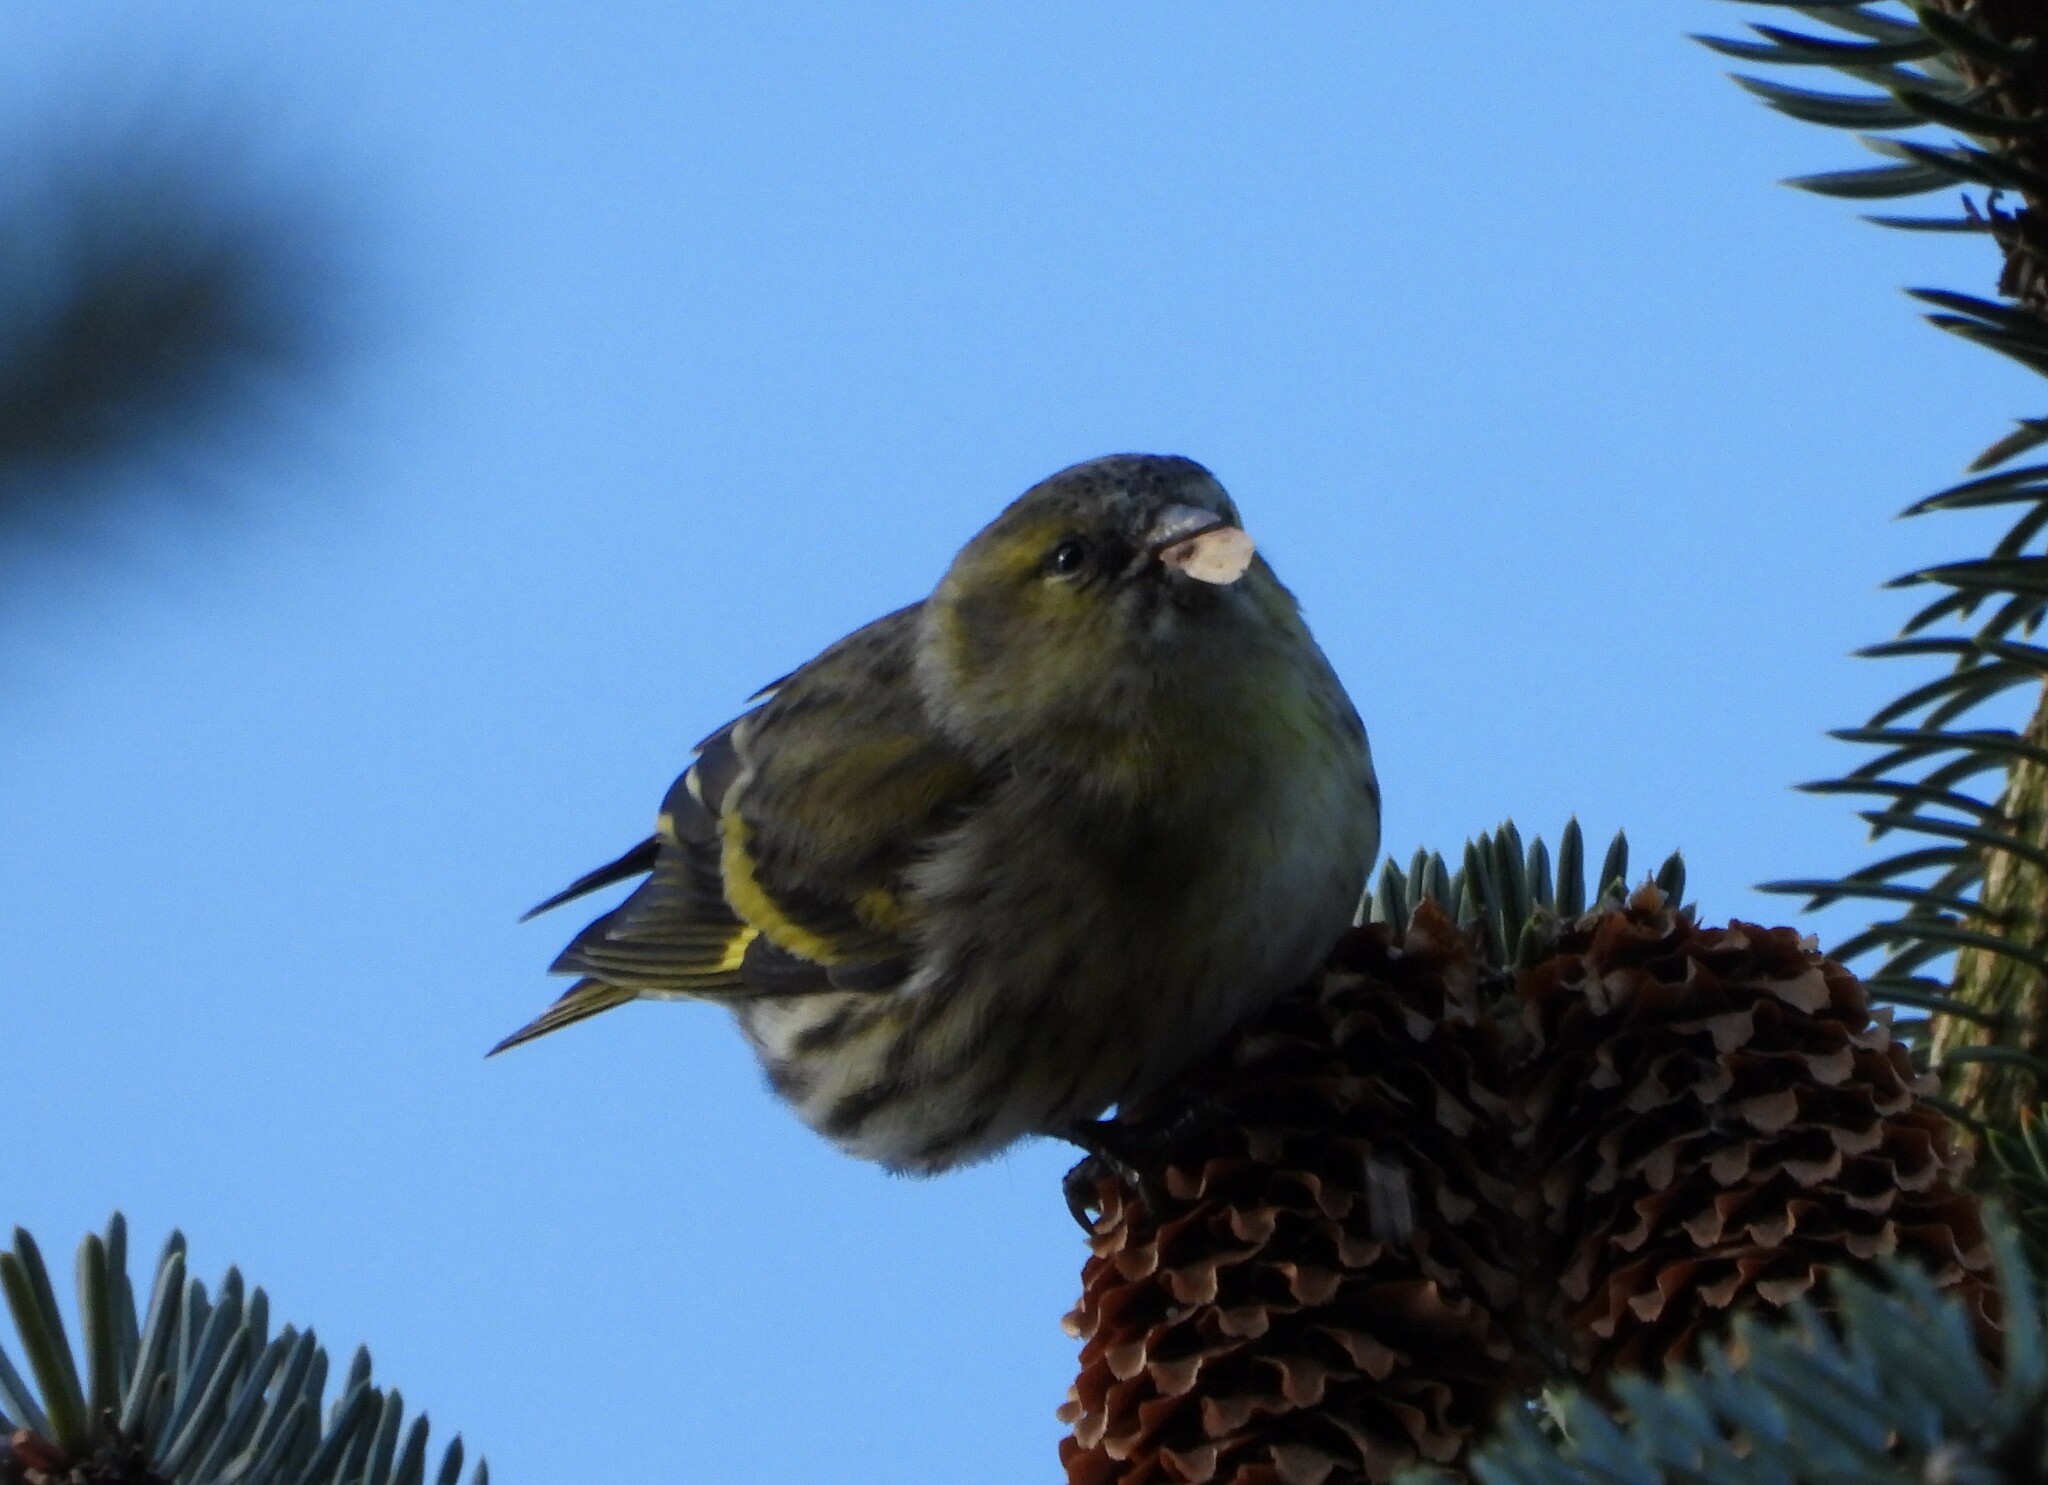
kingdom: Animalia
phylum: Chordata
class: Aves
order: Passeriformes
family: Fringillidae
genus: Spinus
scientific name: Spinus spinus
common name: Eurasian siskin
